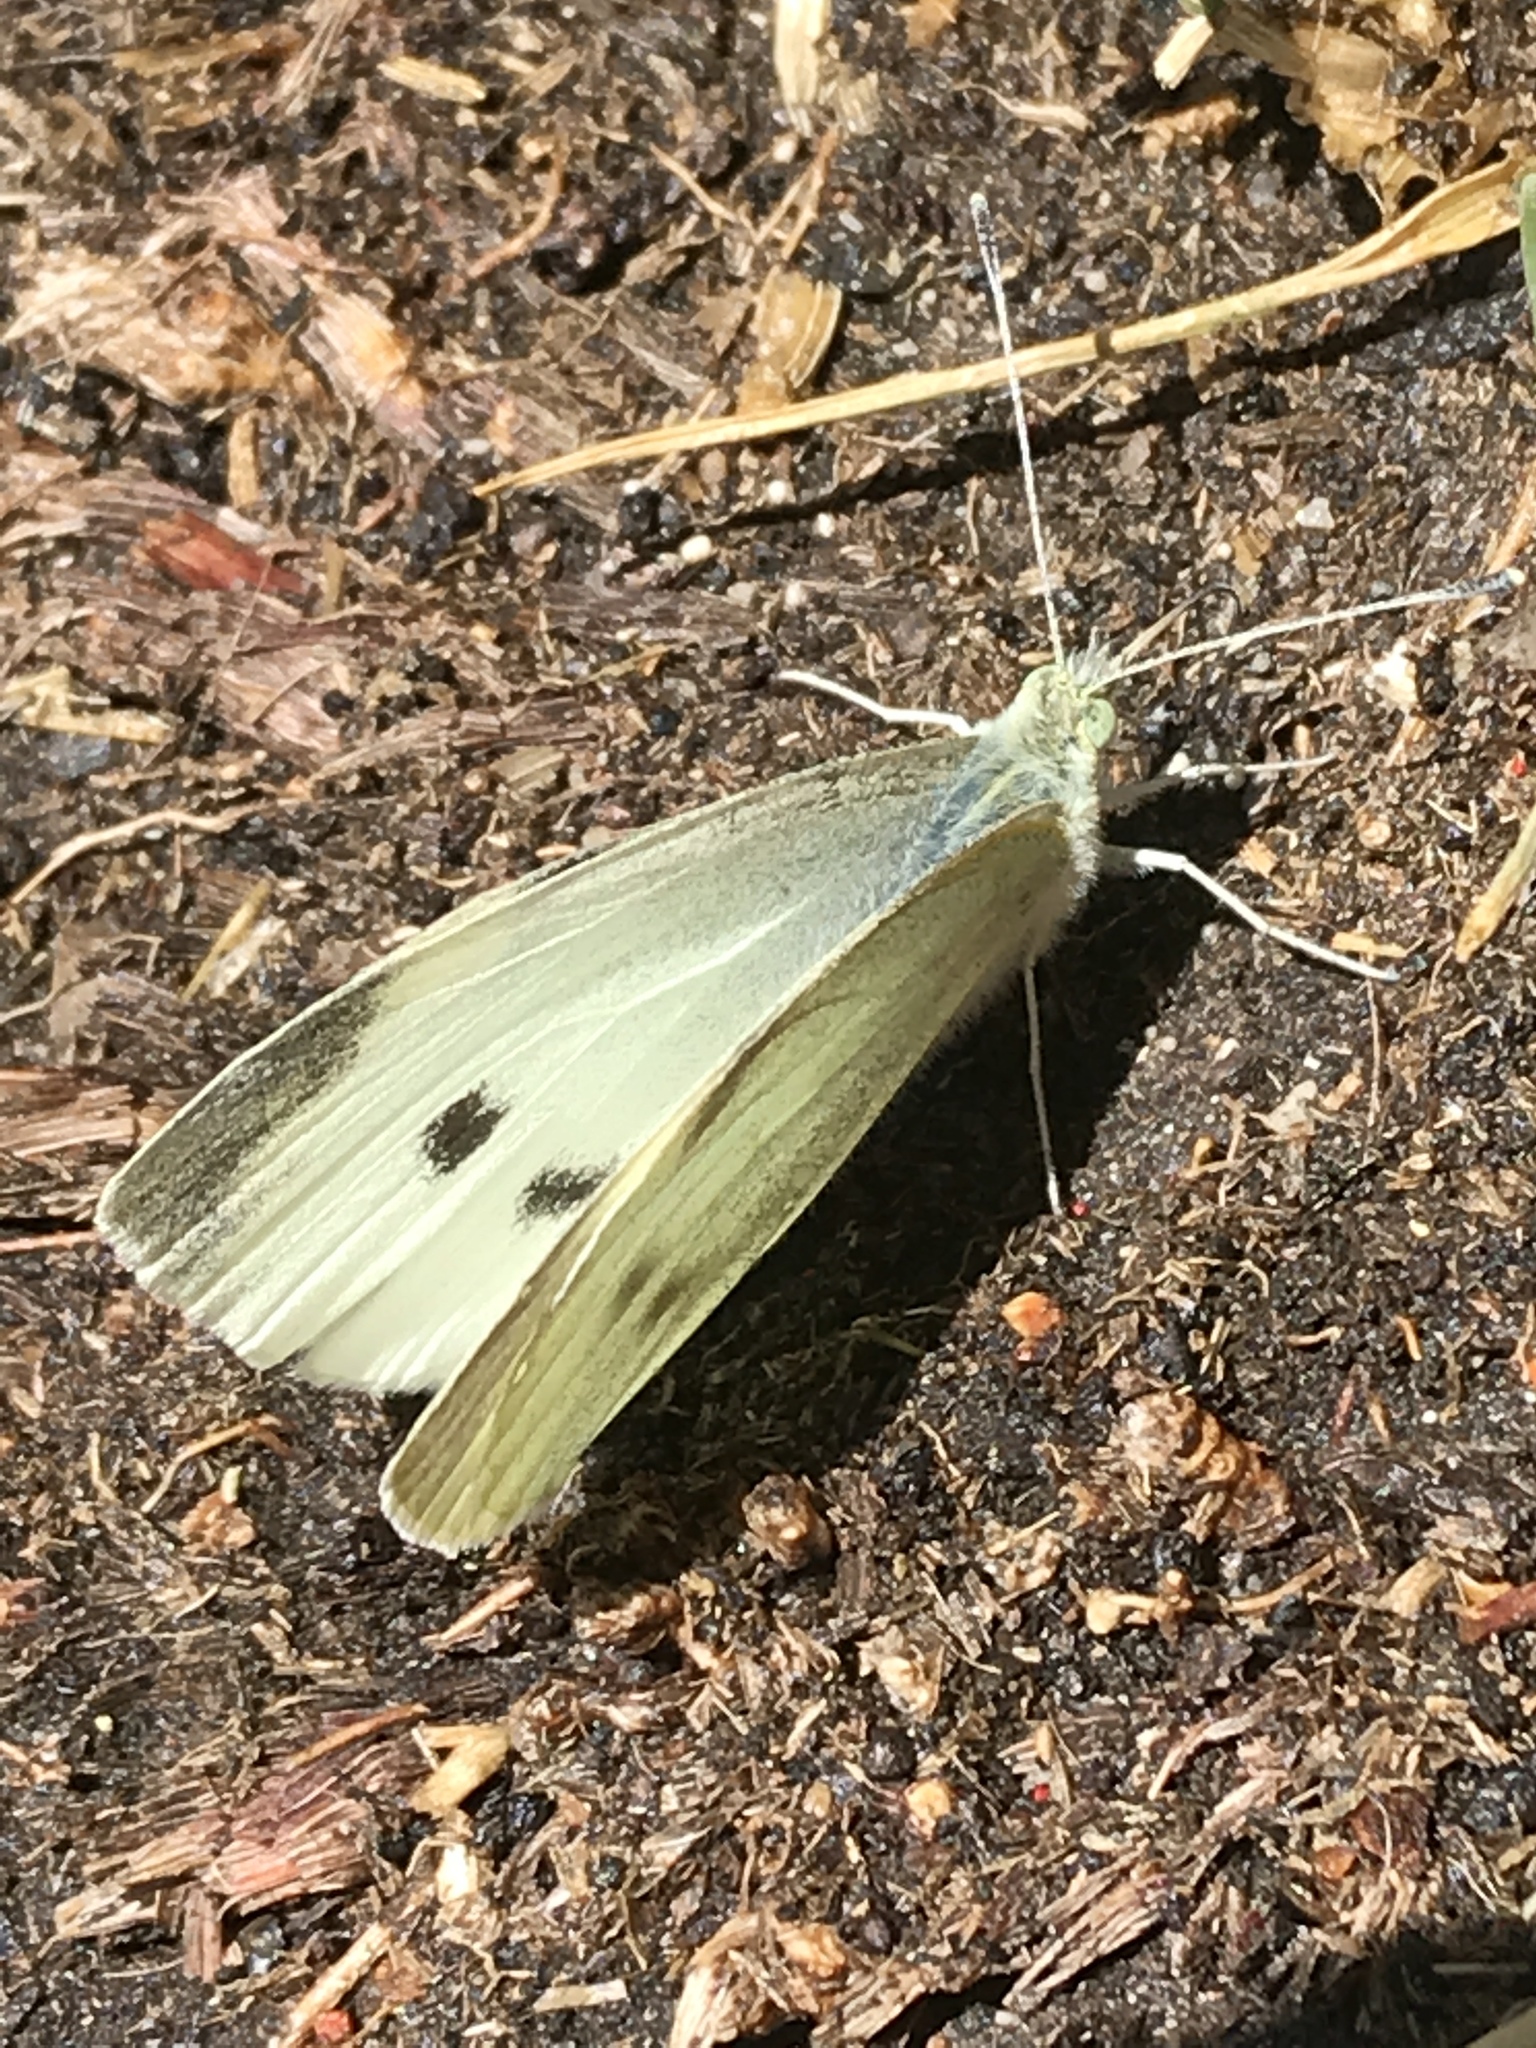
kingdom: Animalia
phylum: Arthropoda
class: Insecta
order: Lepidoptera
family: Pieridae
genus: Pieris
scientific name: Pieris rapae
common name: Small white
